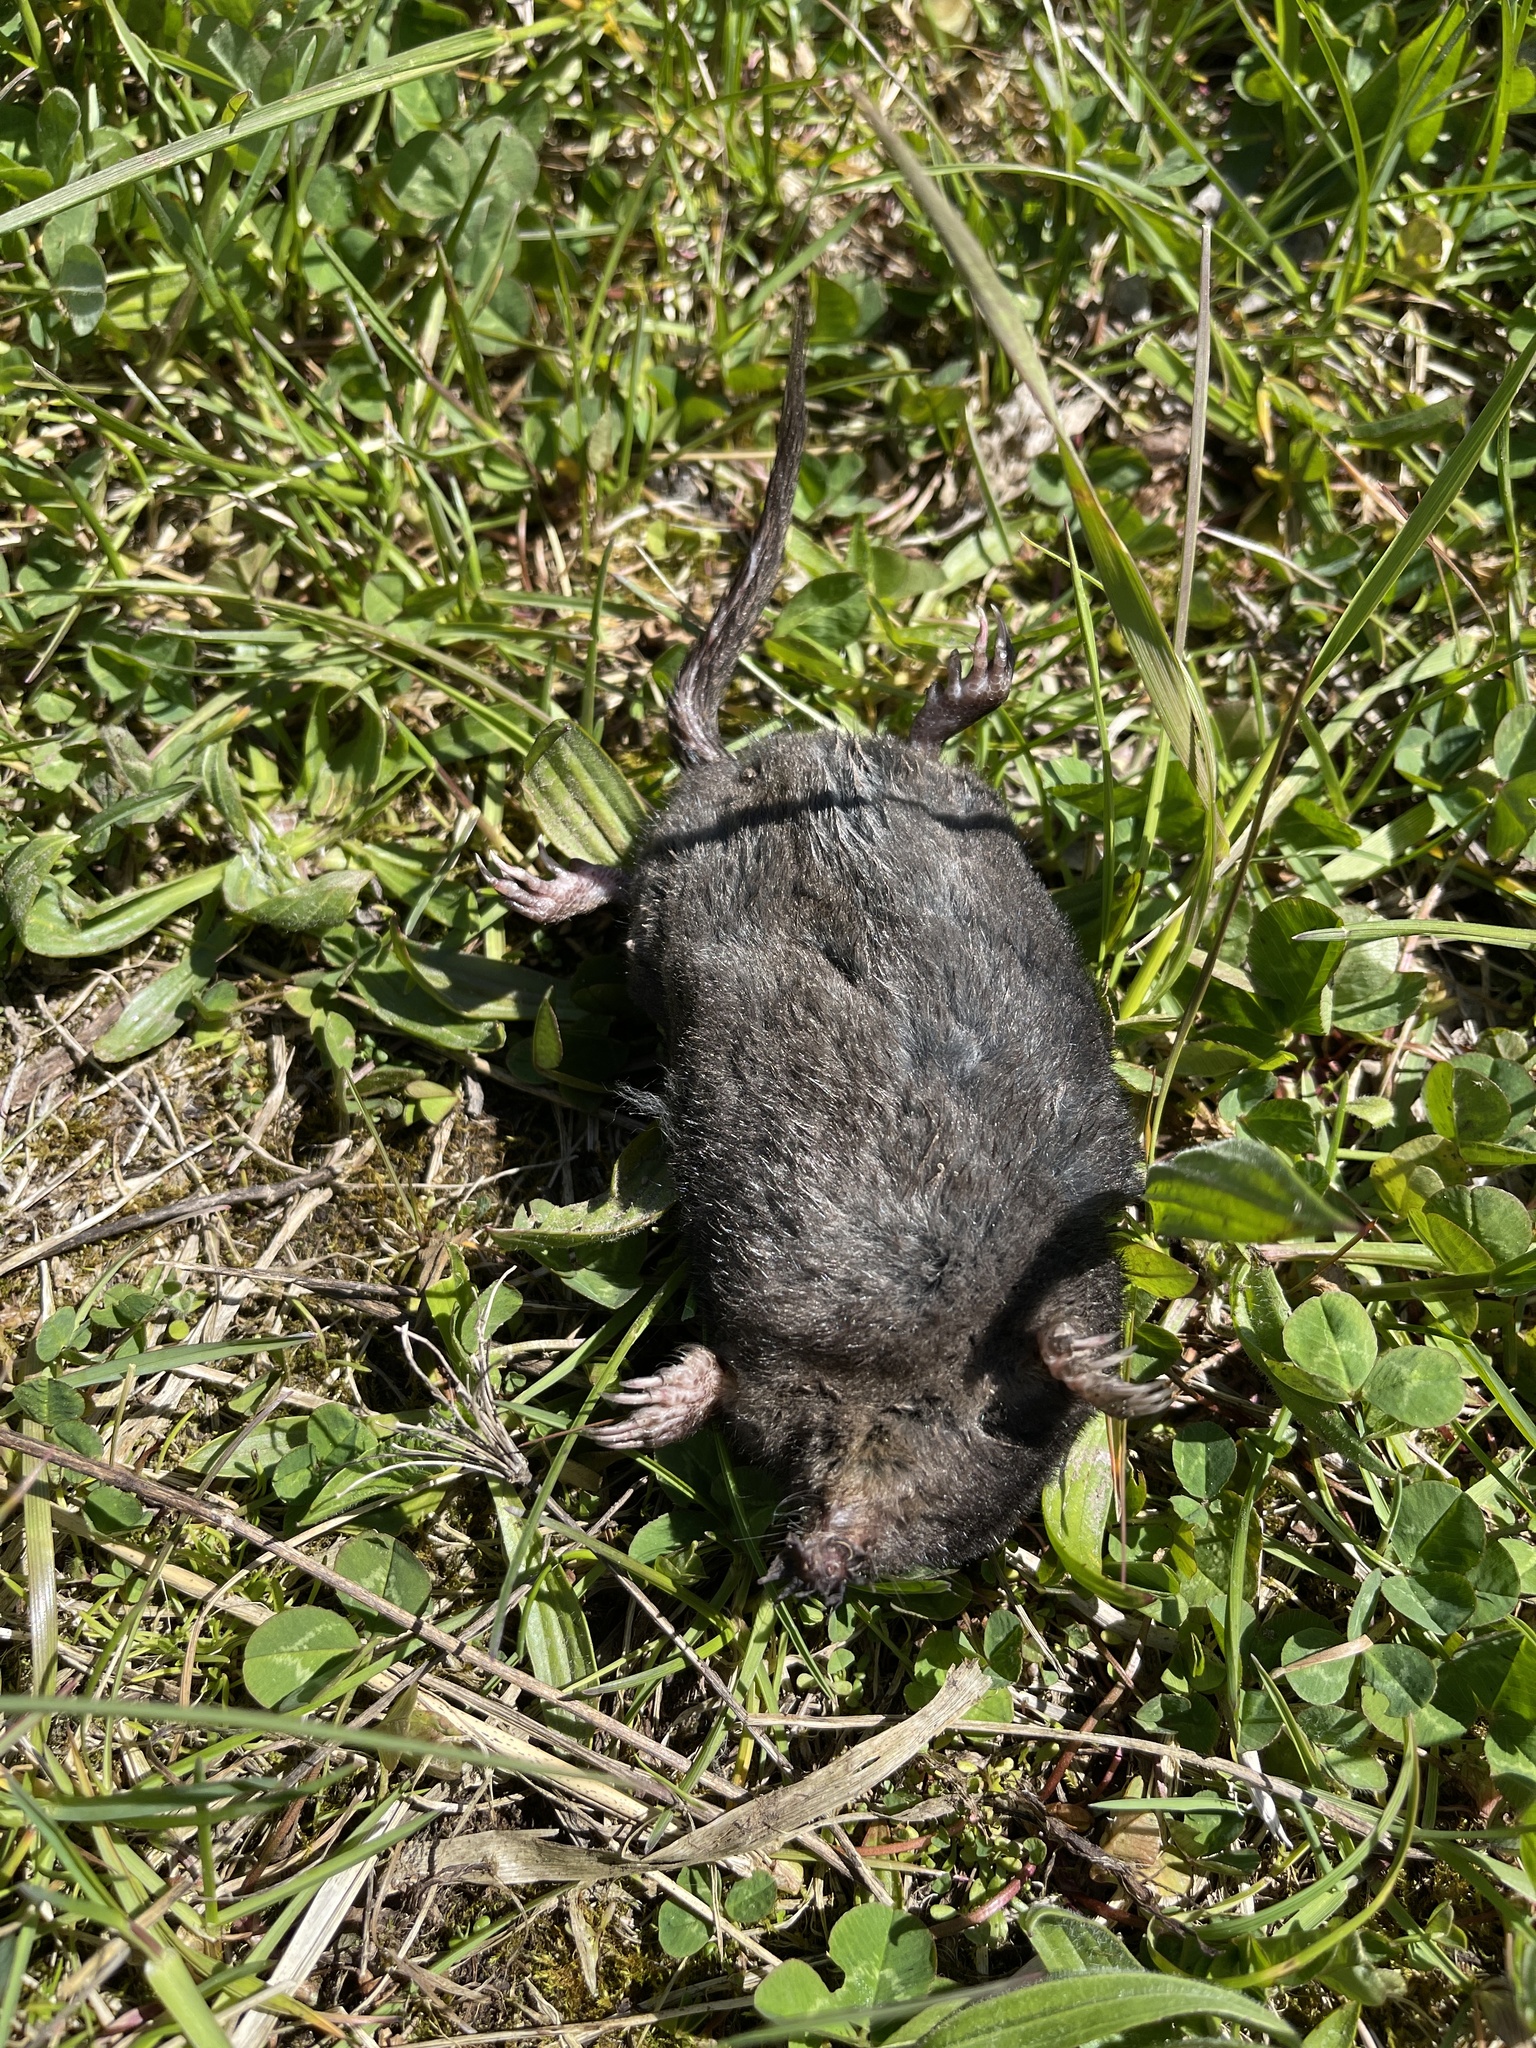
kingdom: Animalia
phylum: Chordata
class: Mammalia
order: Soricomorpha
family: Talpidae
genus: Condylura
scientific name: Condylura cristata
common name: Star-nosed mole
